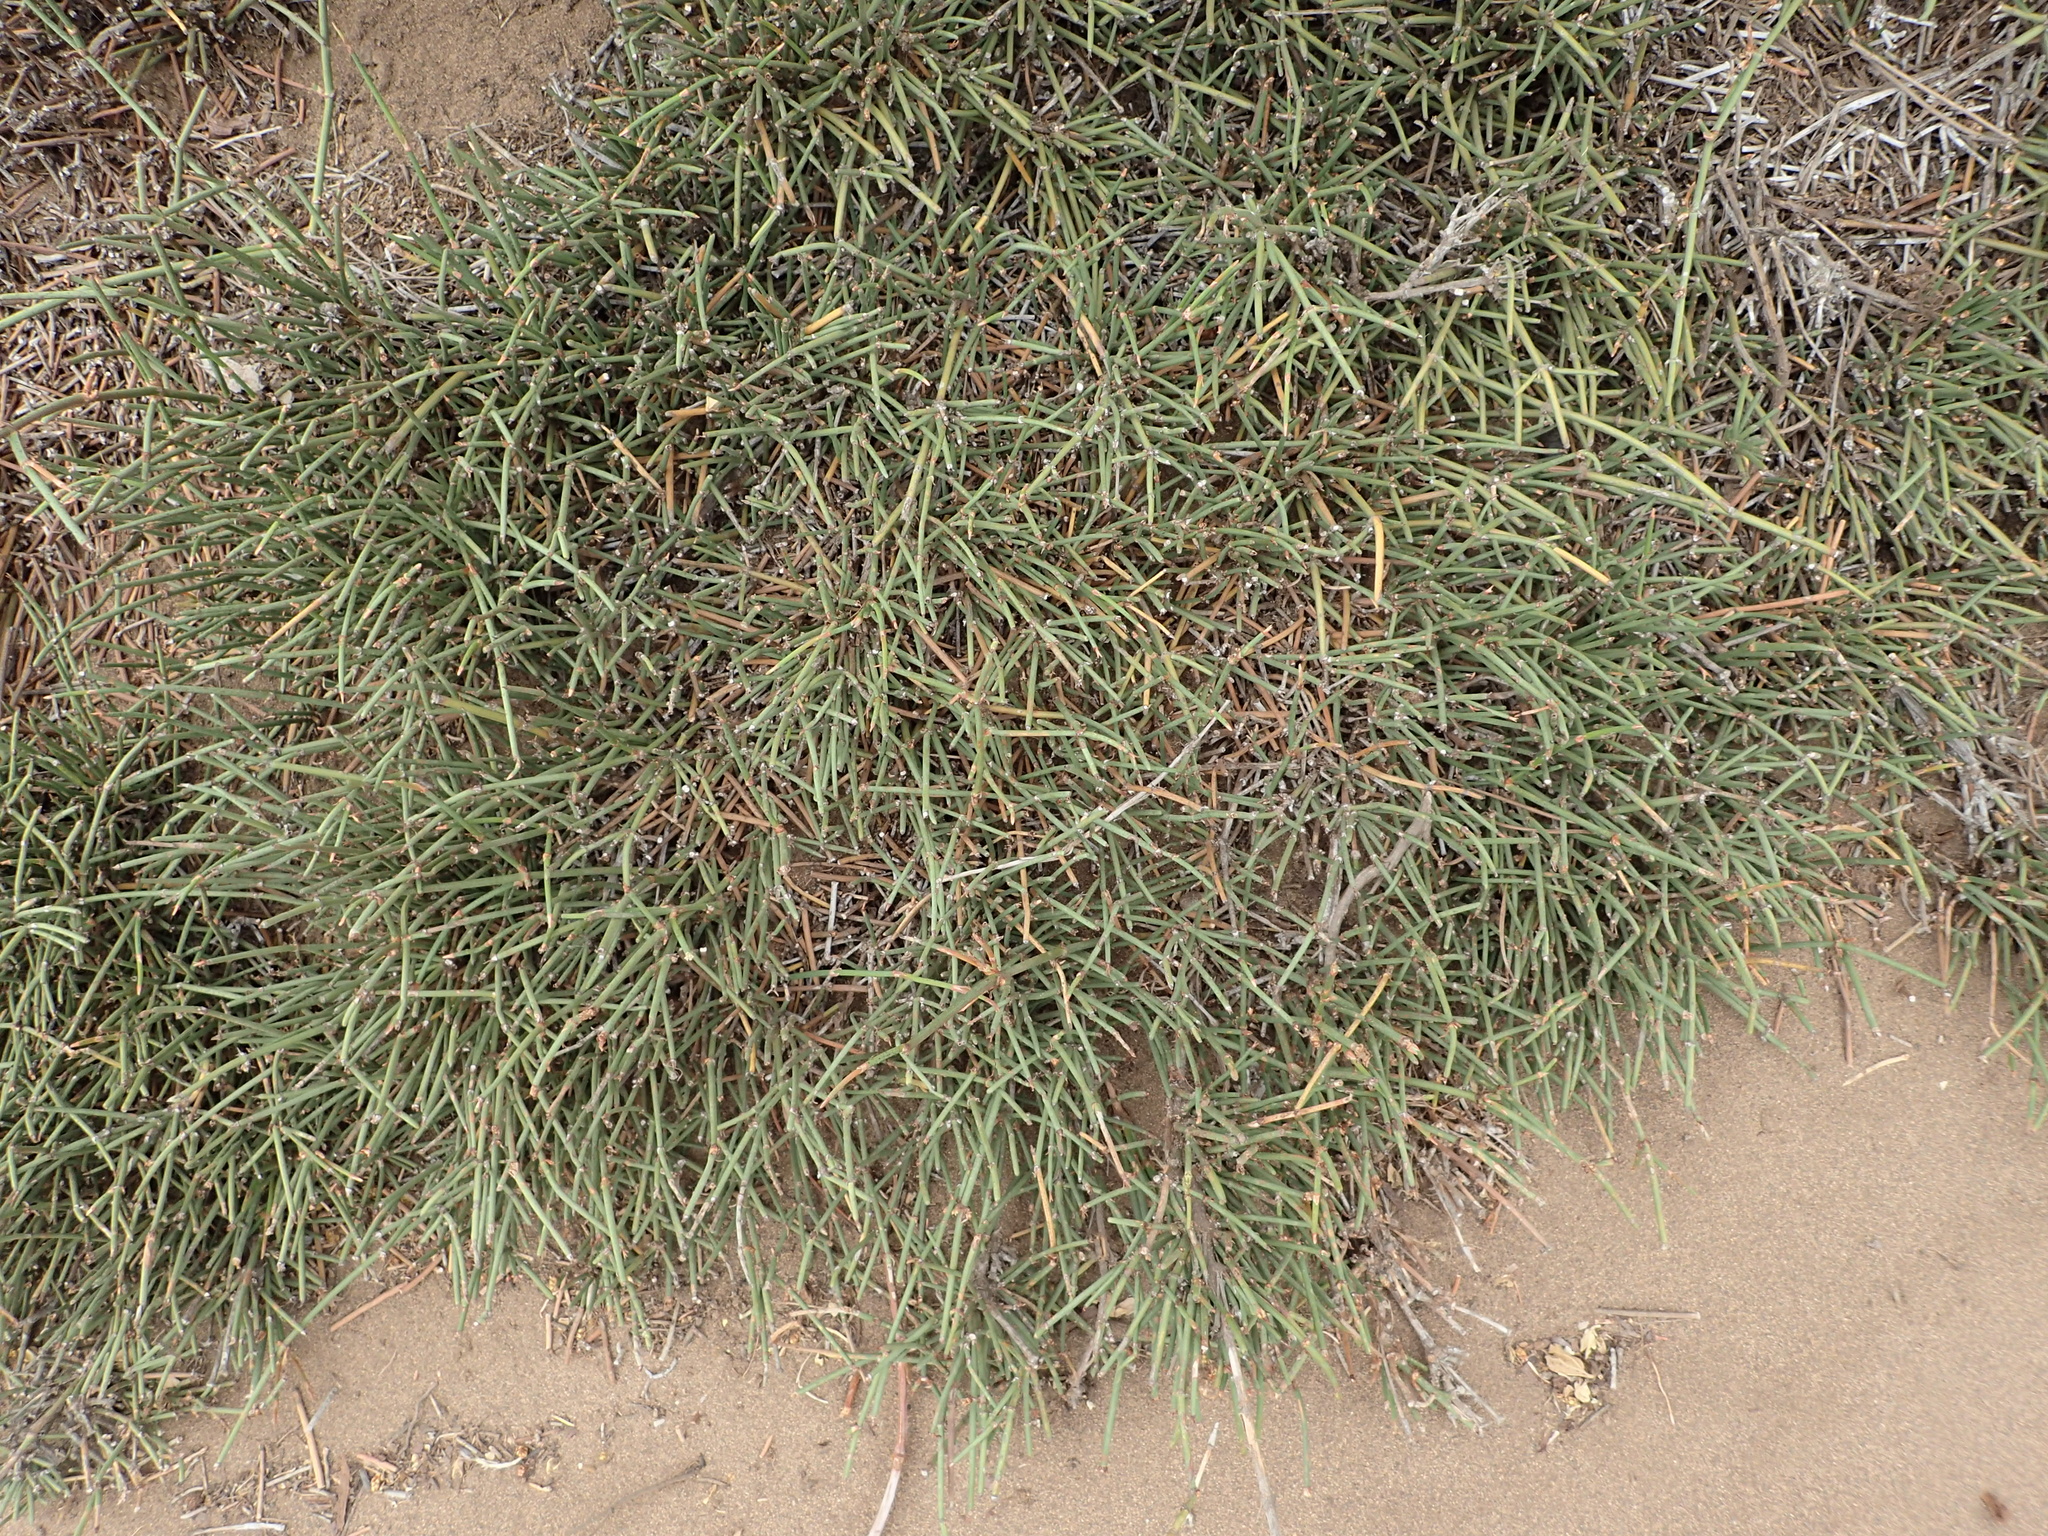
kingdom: Plantae
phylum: Tracheophyta
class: Gnetopsida
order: Ephedrales
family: Ephedraceae
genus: Ephedra
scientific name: Ephedra chilensis
